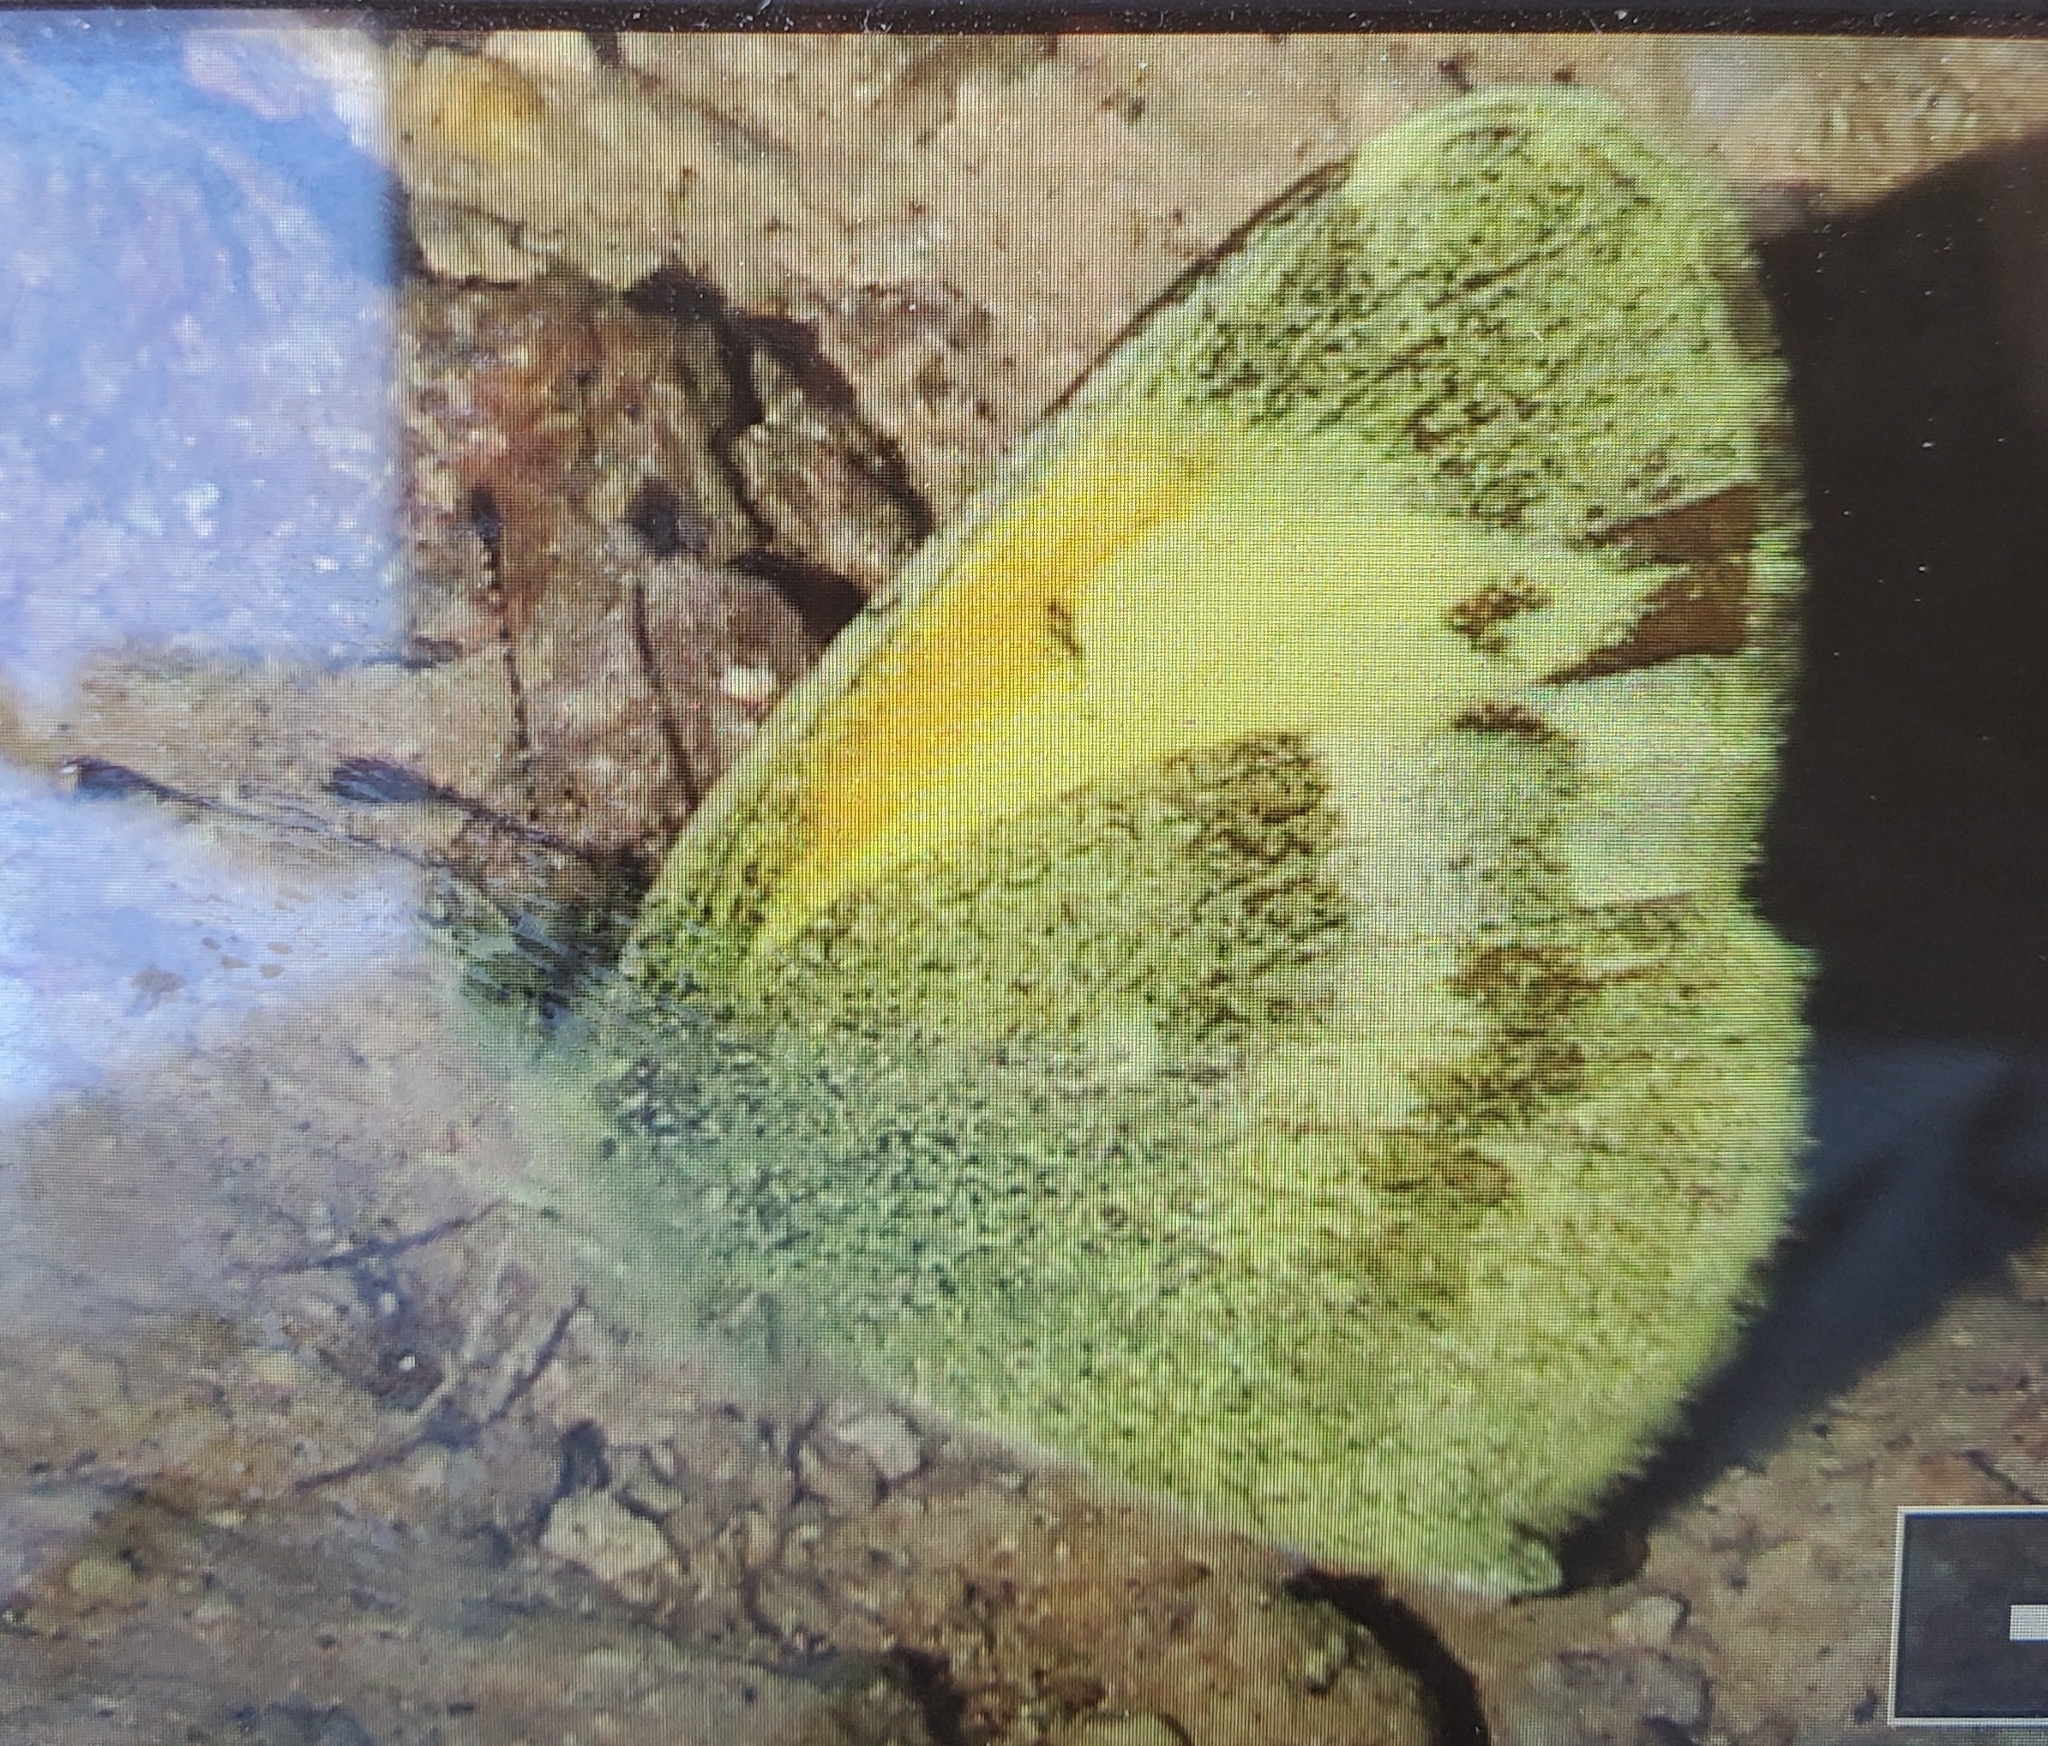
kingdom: Animalia
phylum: Arthropoda
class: Insecta
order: Lepidoptera
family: Pieridae
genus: Nathalis
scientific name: Nathalis iole
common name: Dainty sulphur
